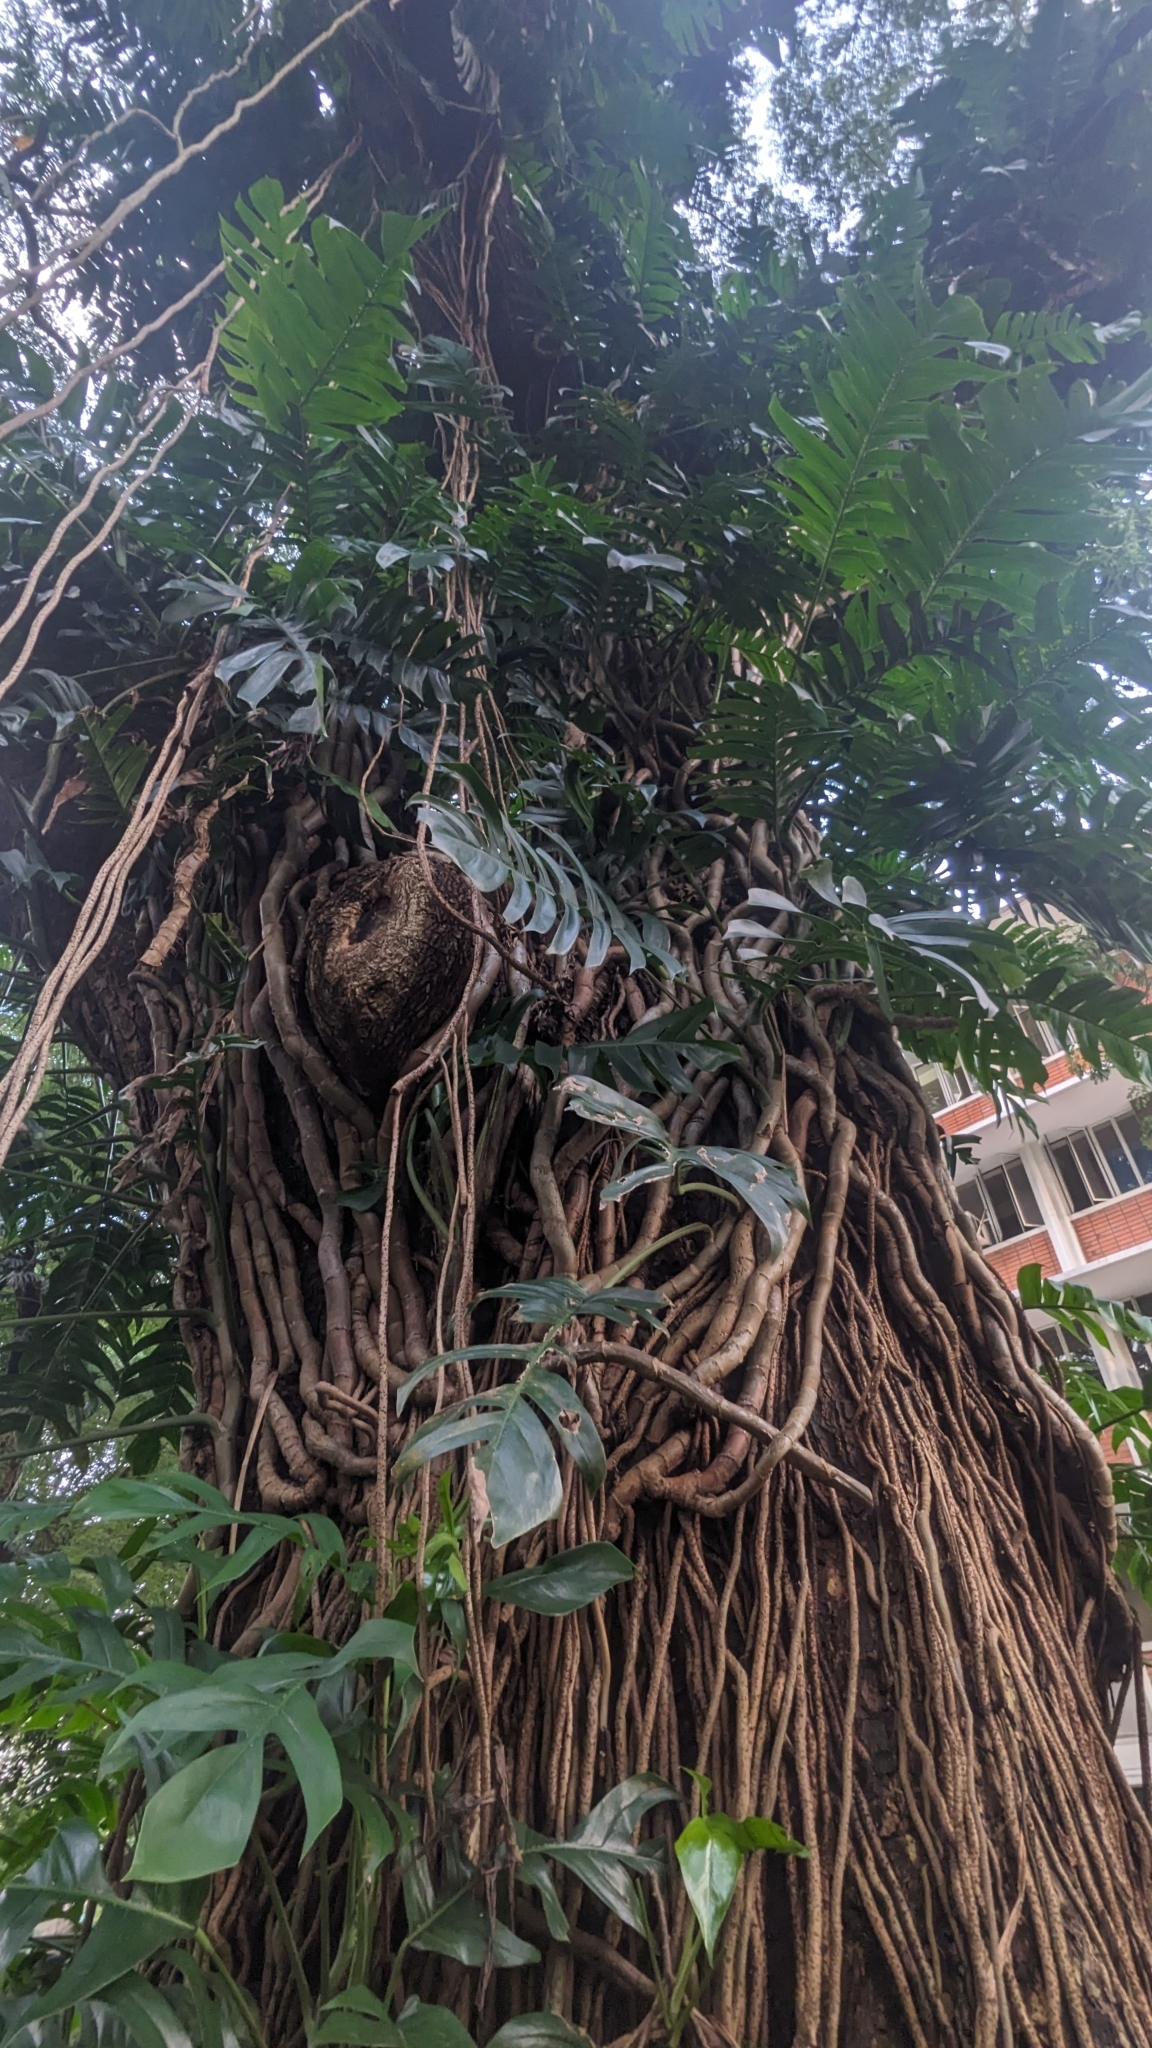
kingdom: Plantae
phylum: Tracheophyta
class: Liliopsida
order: Alismatales
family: Araceae
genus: Epipremnum
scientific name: Epipremnum pinnatum
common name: Centipede tongavine
